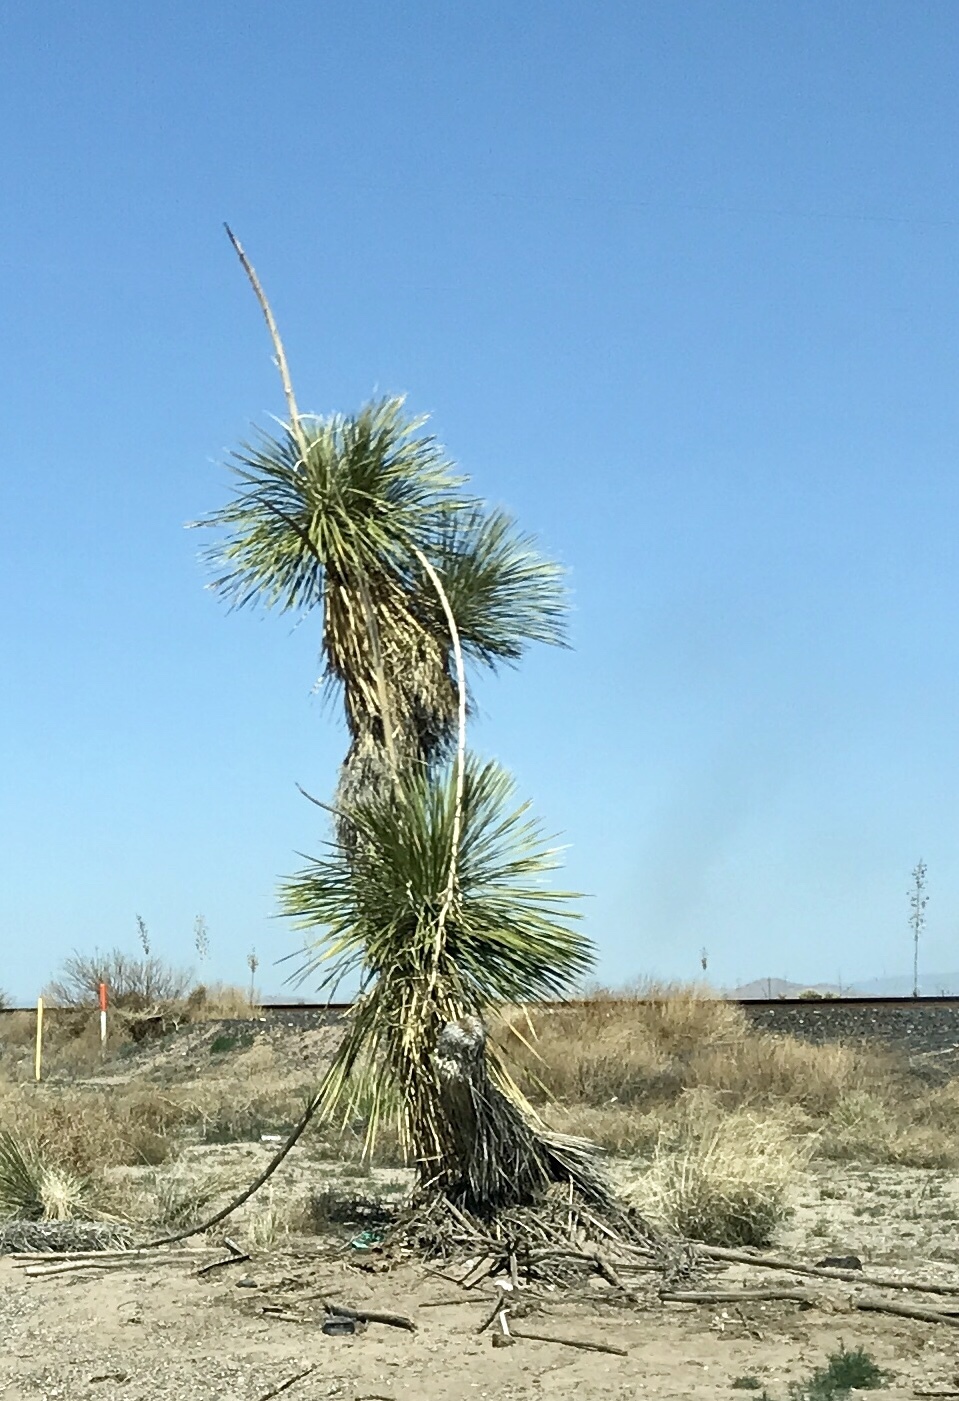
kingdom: Plantae
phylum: Tracheophyta
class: Liliopsida
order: Asparagales
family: Asparagaceae
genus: Yucca
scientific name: Yucca elata
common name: Palmella
